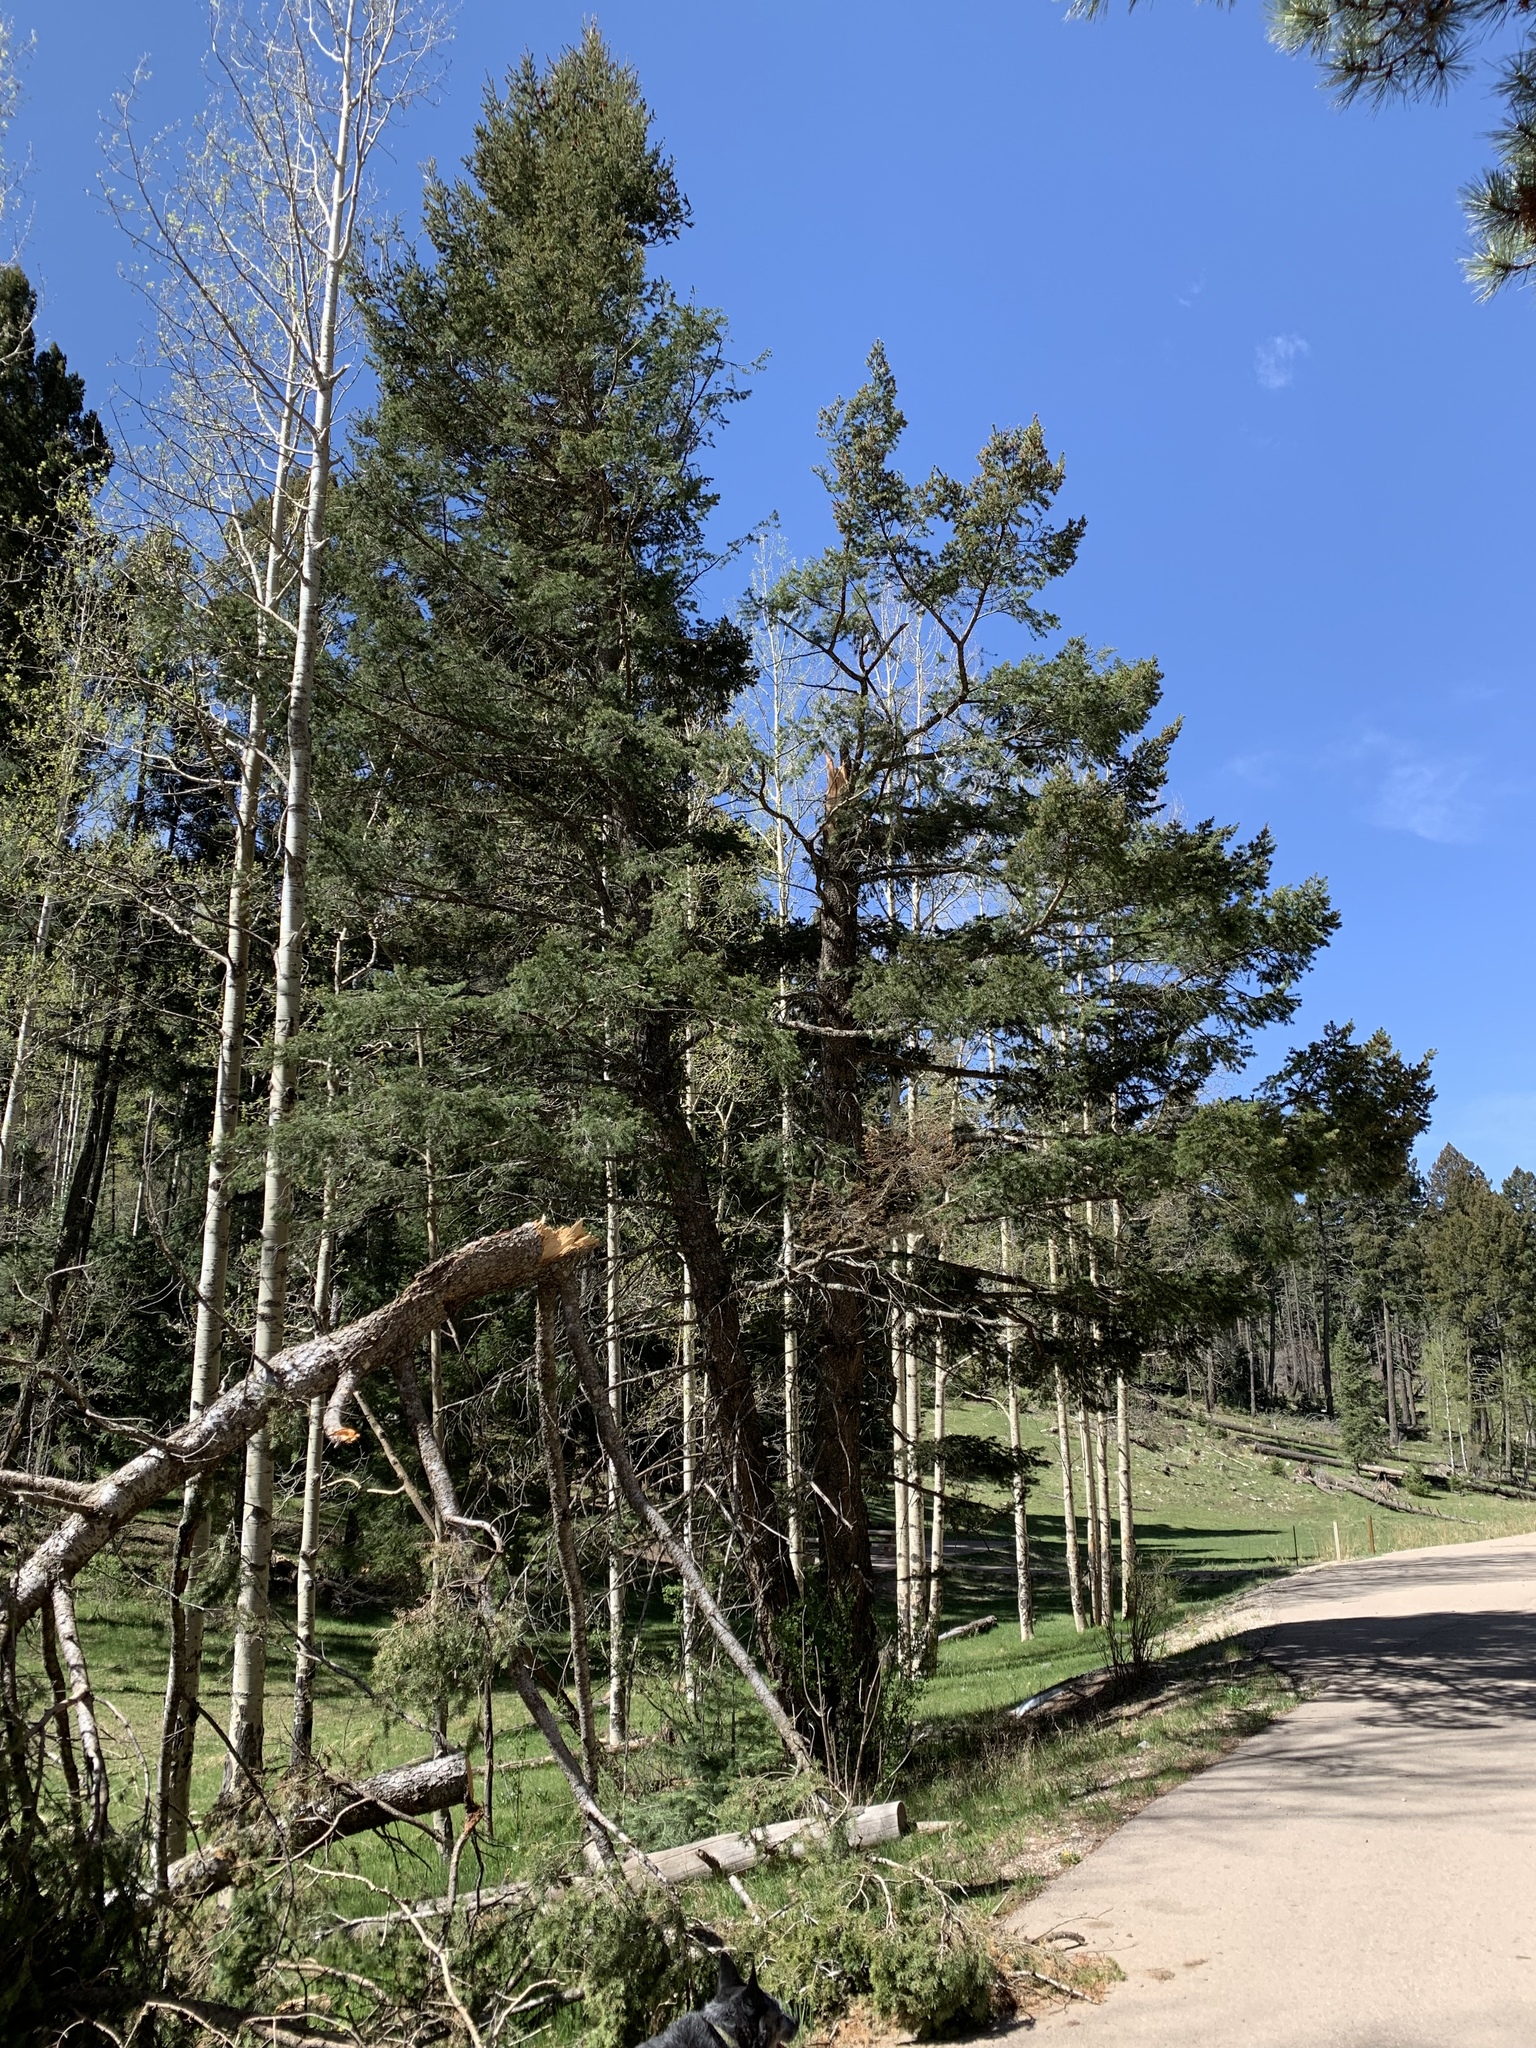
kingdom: Plantae
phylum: Tracheophyta
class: Pinopsida
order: Pinales
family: Pinaceae
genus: Pseudotsuga
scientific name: Pseudotsuga menziesii
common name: Douglas fir
